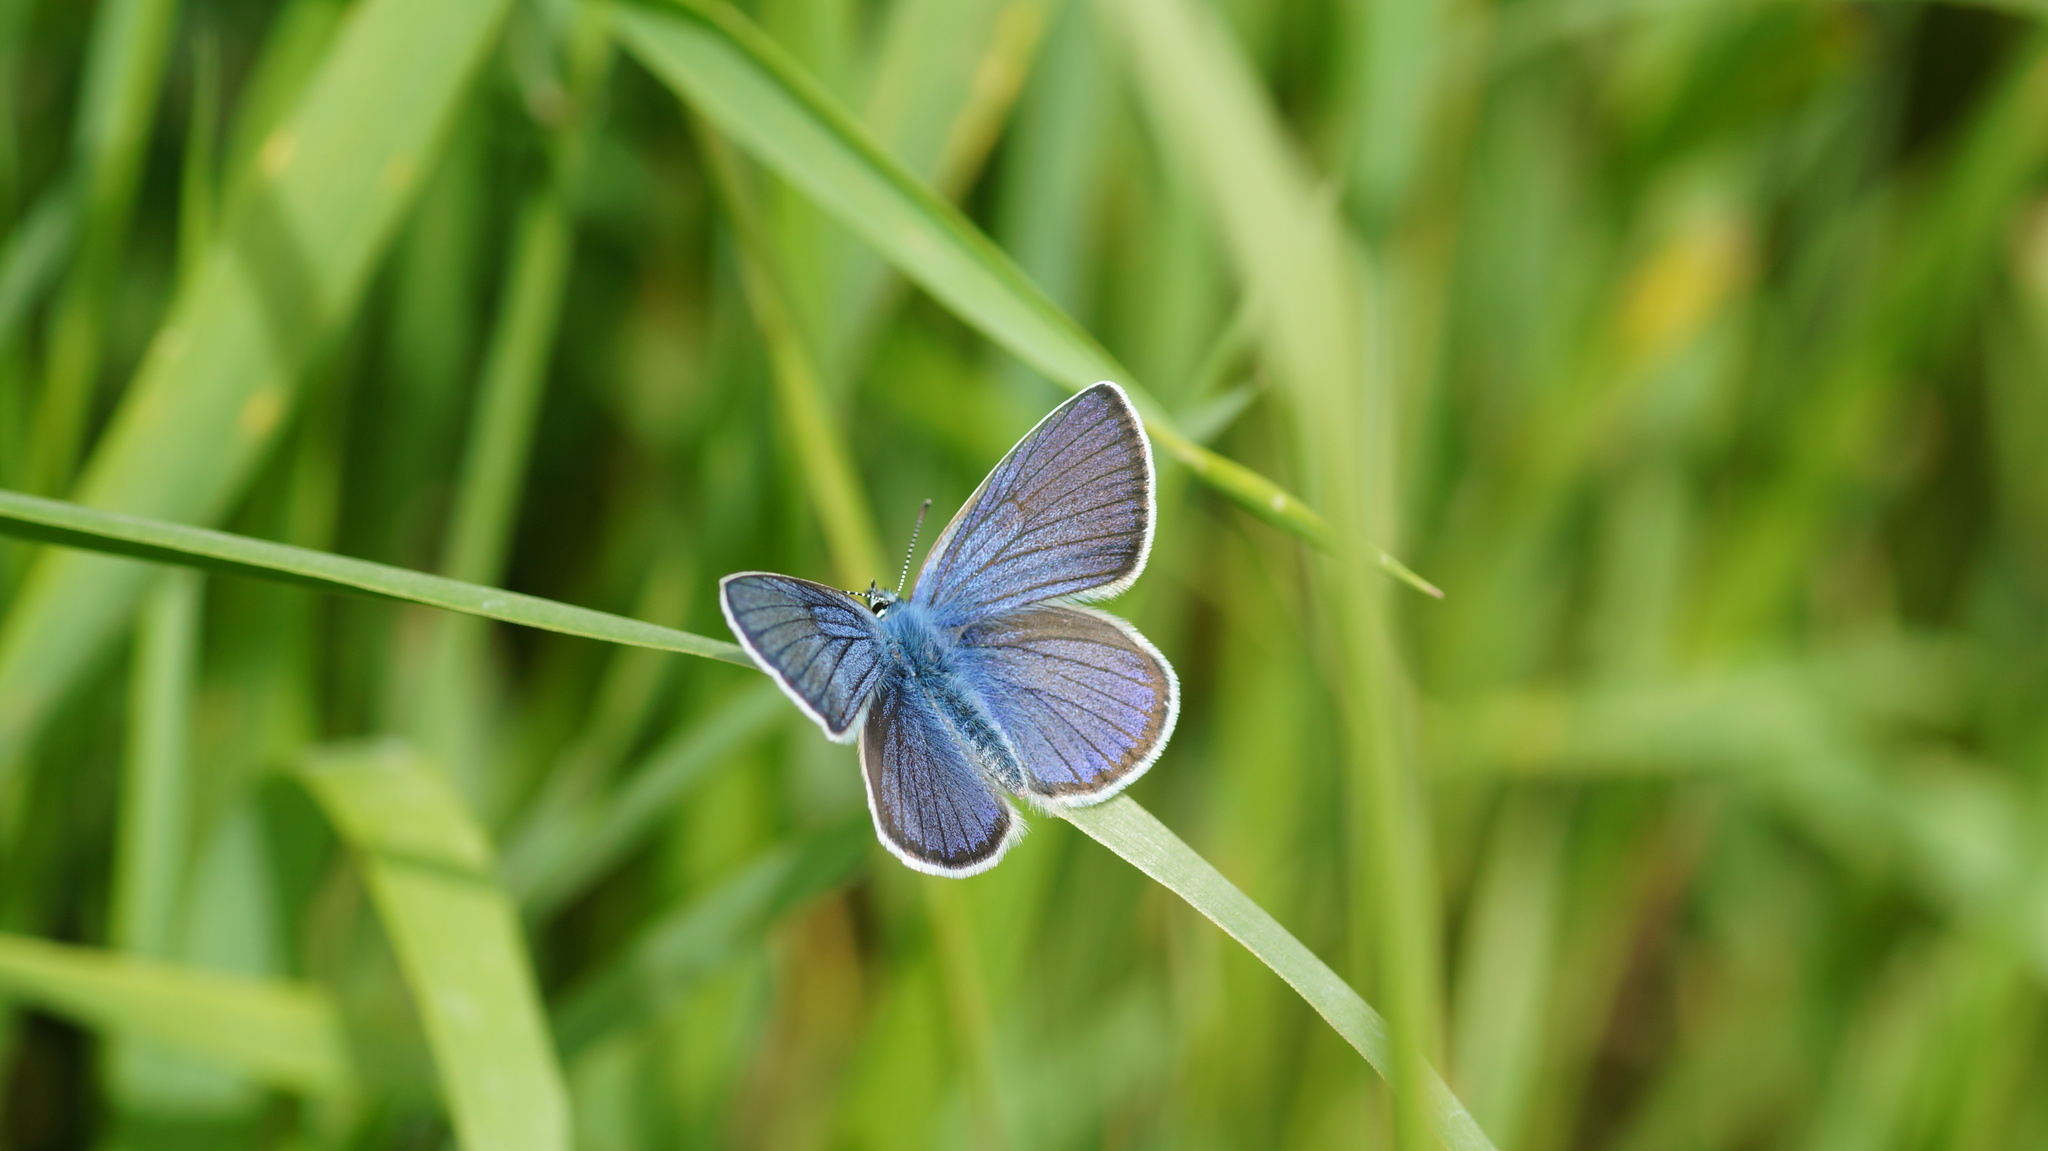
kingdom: Animalia
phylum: Arthropoda
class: Insecta
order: Lepidoptera
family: Lycaenidae
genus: Cyaniris
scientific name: Cyaniris semiargus
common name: Mazarine blue
